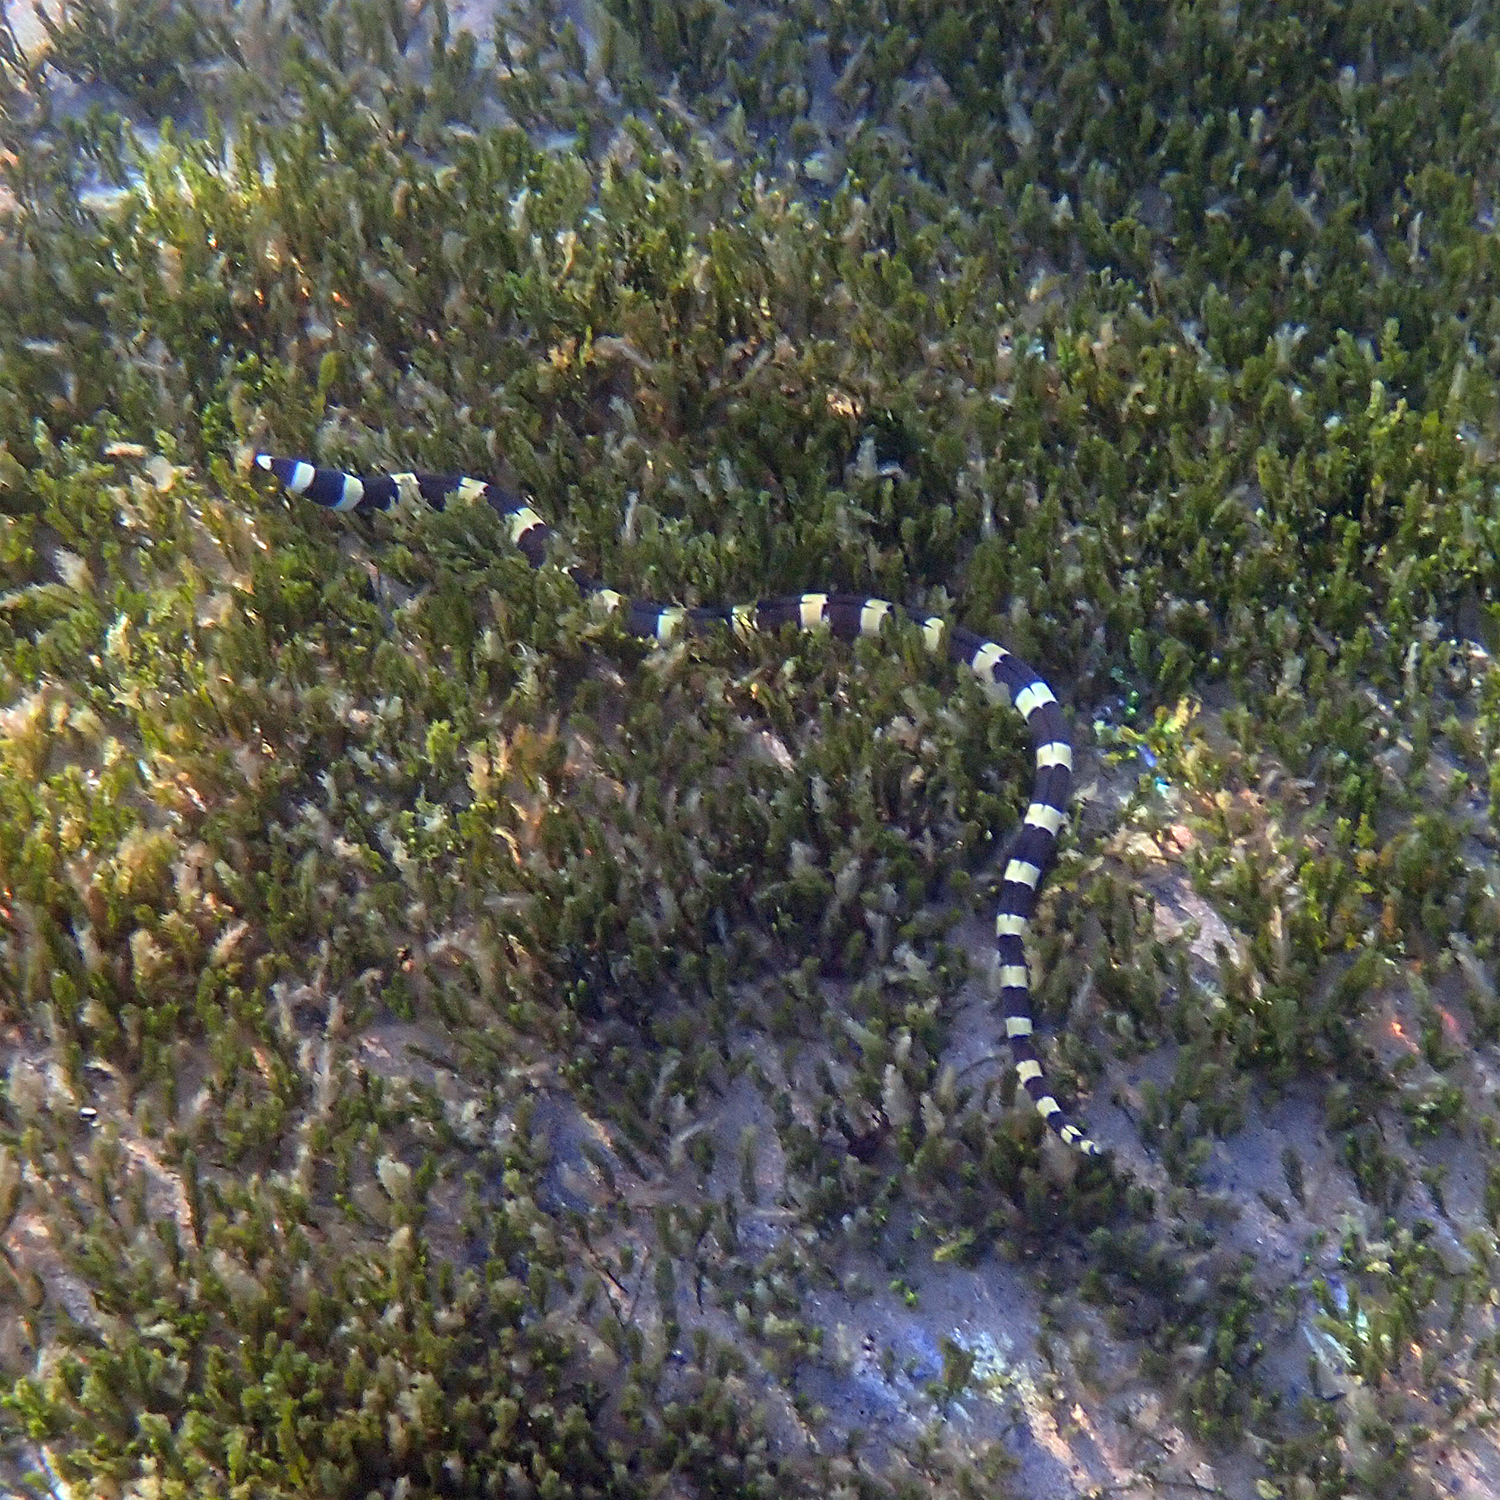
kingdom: Animalia
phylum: Chordata
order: Anguilliformes
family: Ophichthidae
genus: Leiuranus
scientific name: Leiuranus semicinctus
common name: Saddled snake eel
